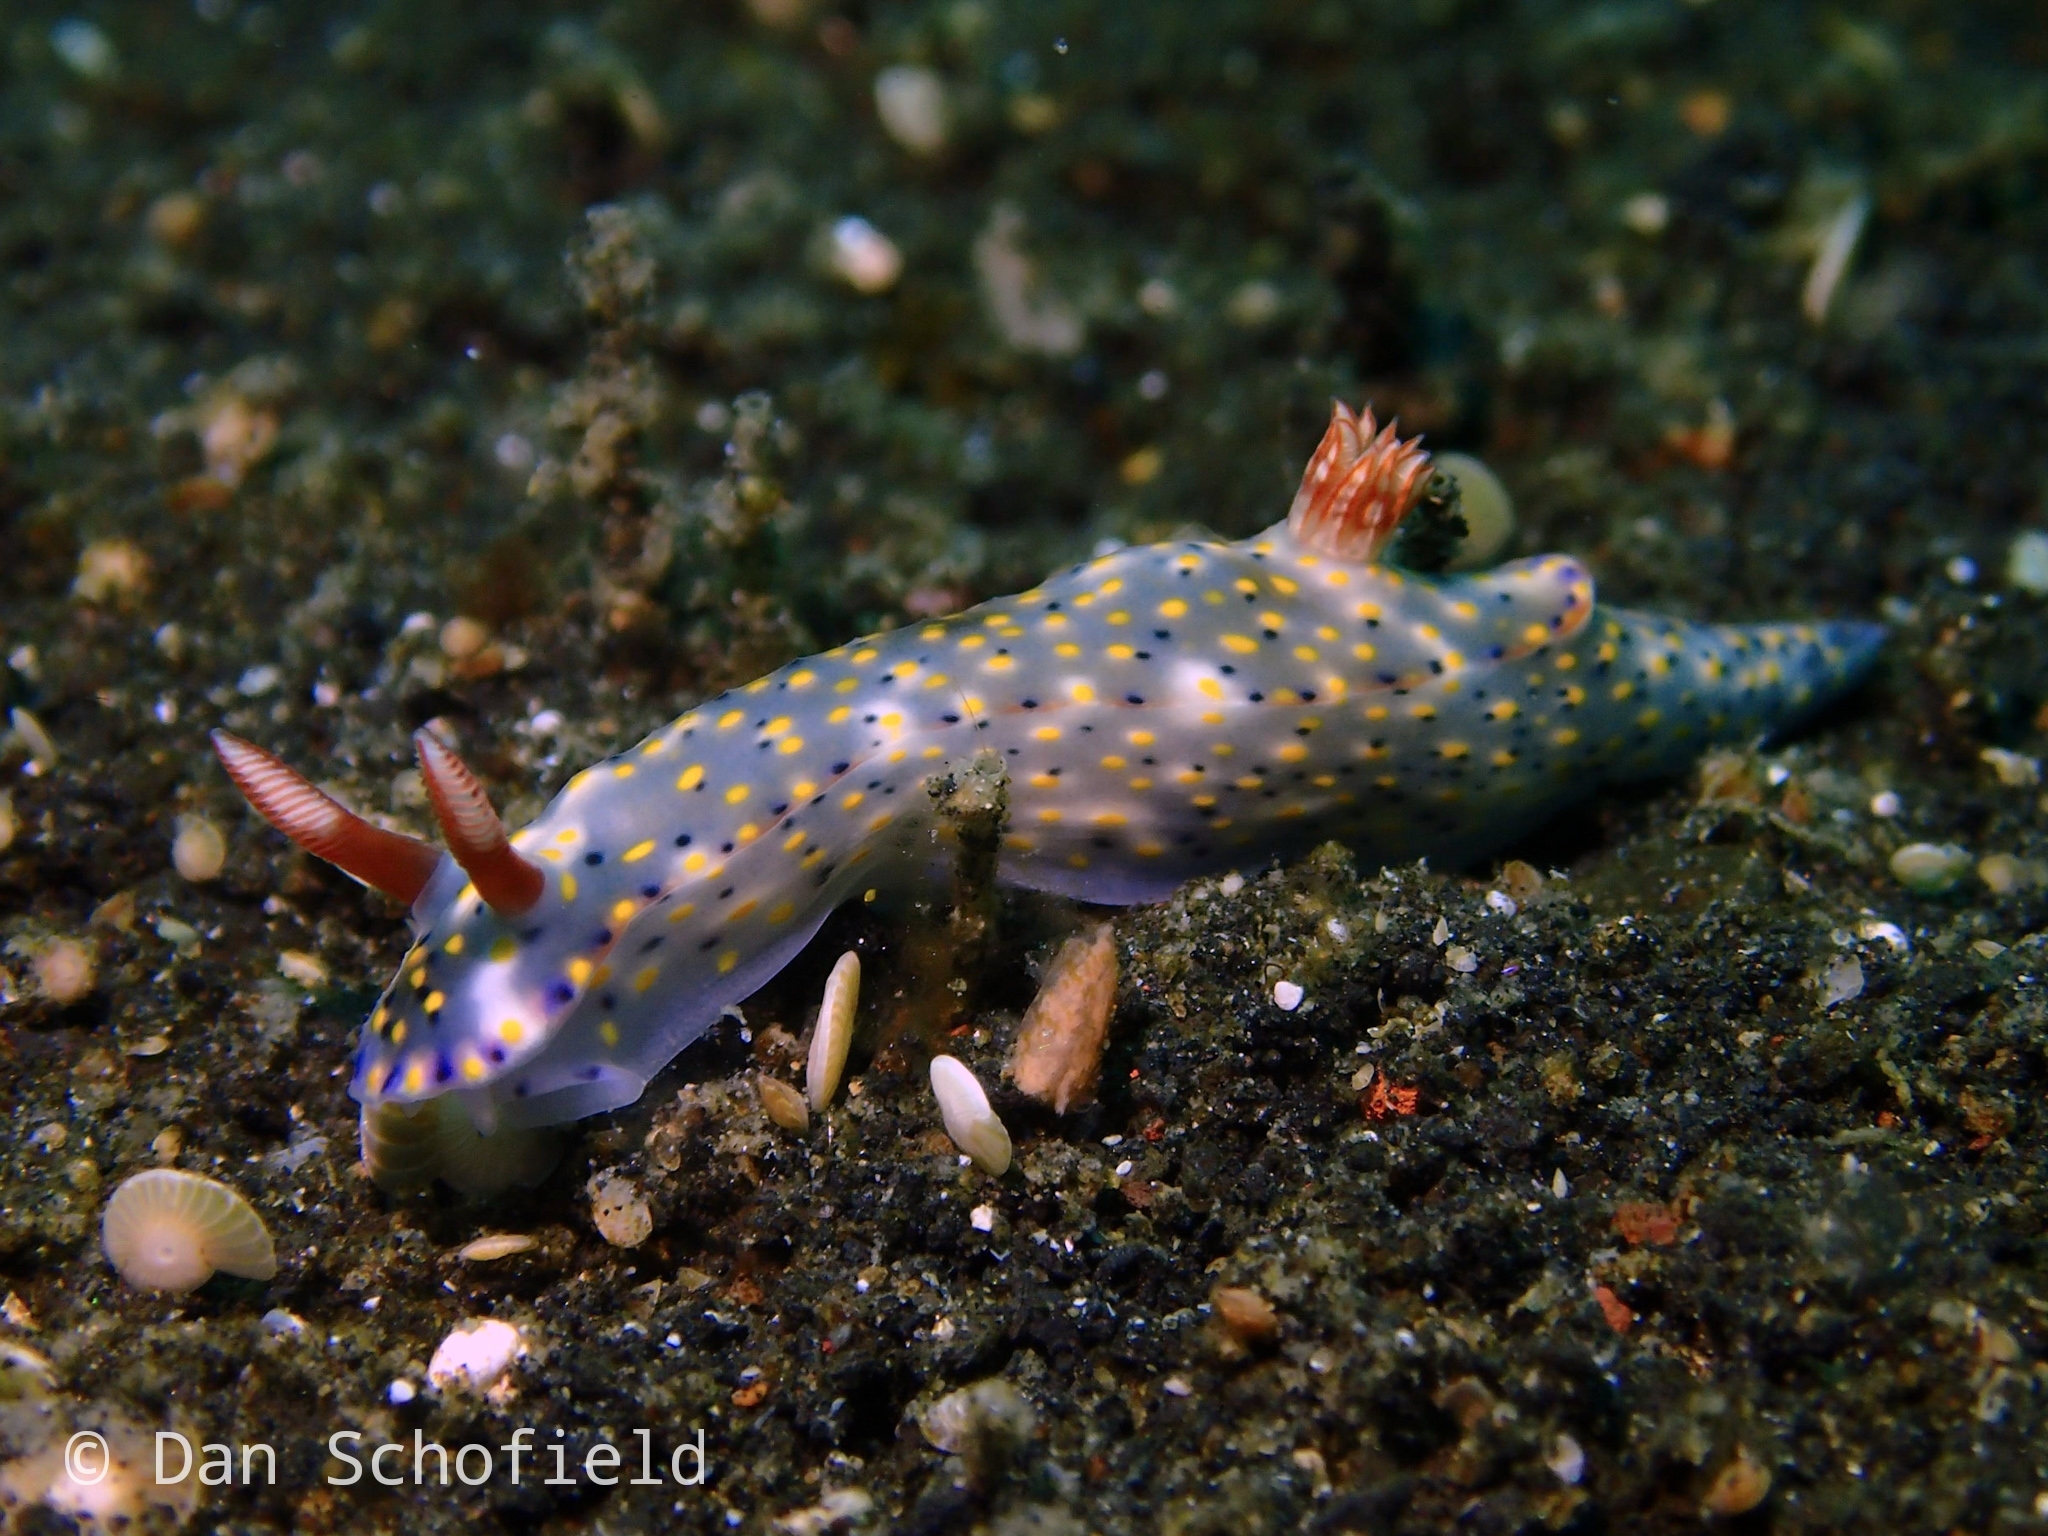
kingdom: Animalia
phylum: Mollusca
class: Gastropoda
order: Nudibranchia
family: Chromodorididae
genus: Hypselodoris
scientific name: Hypselodoris roo
